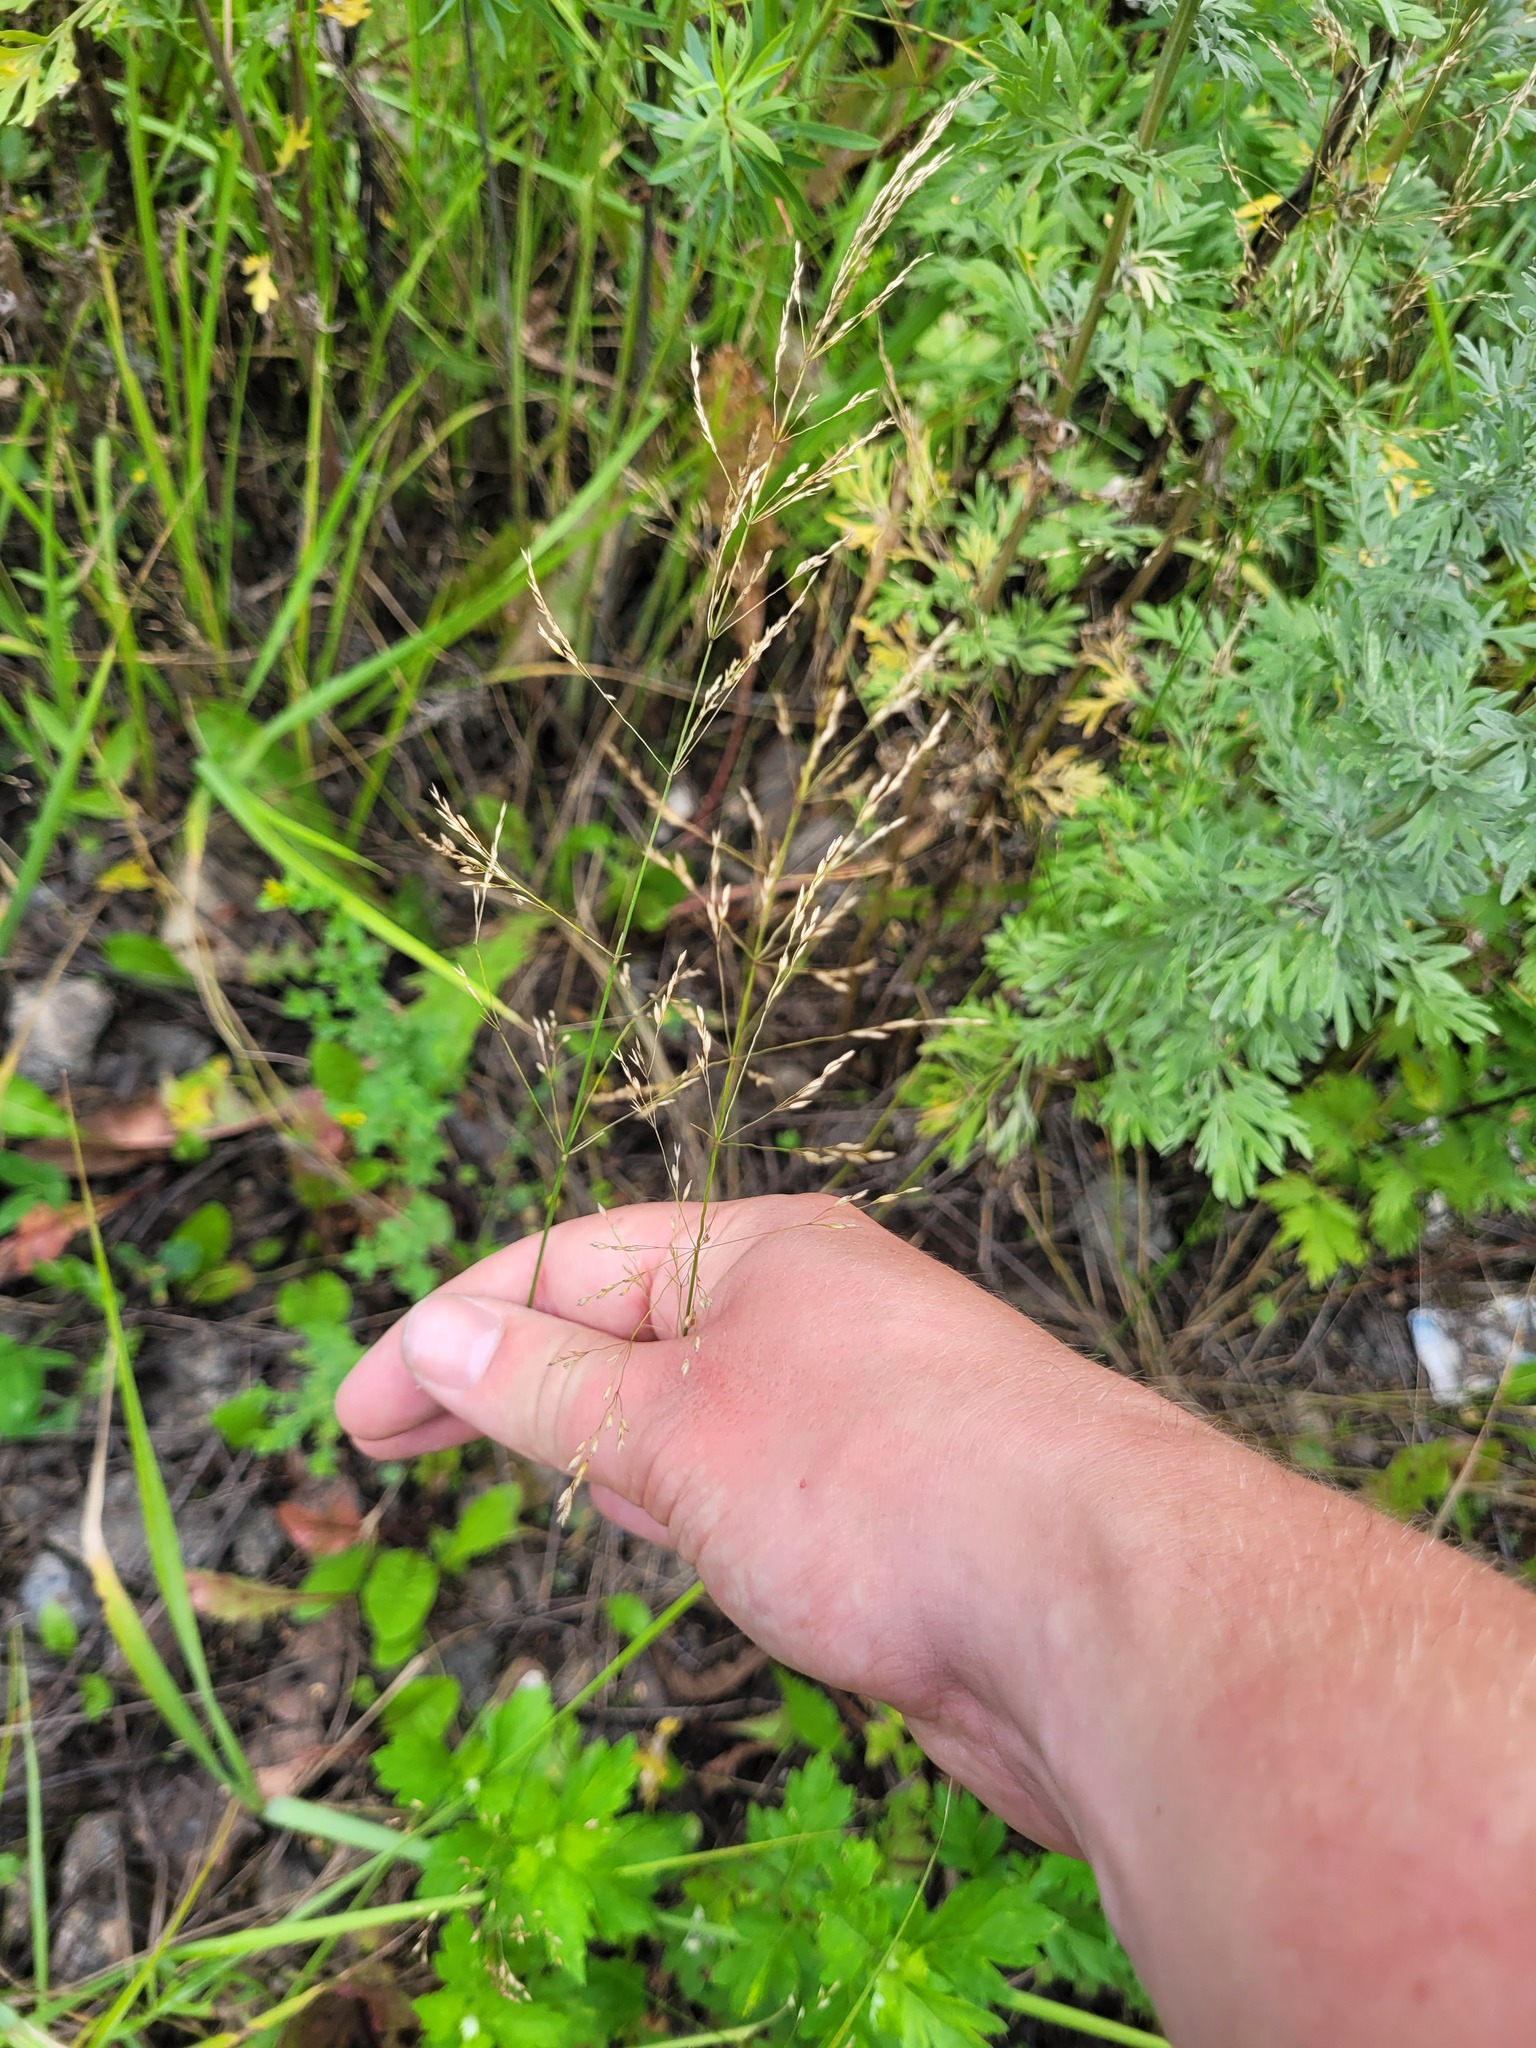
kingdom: Plantae
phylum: Tracheophyta
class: Liliopsida
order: Poales
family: Poaceae
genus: Poa
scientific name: Poa palustris
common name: Swamp meadow-grass
